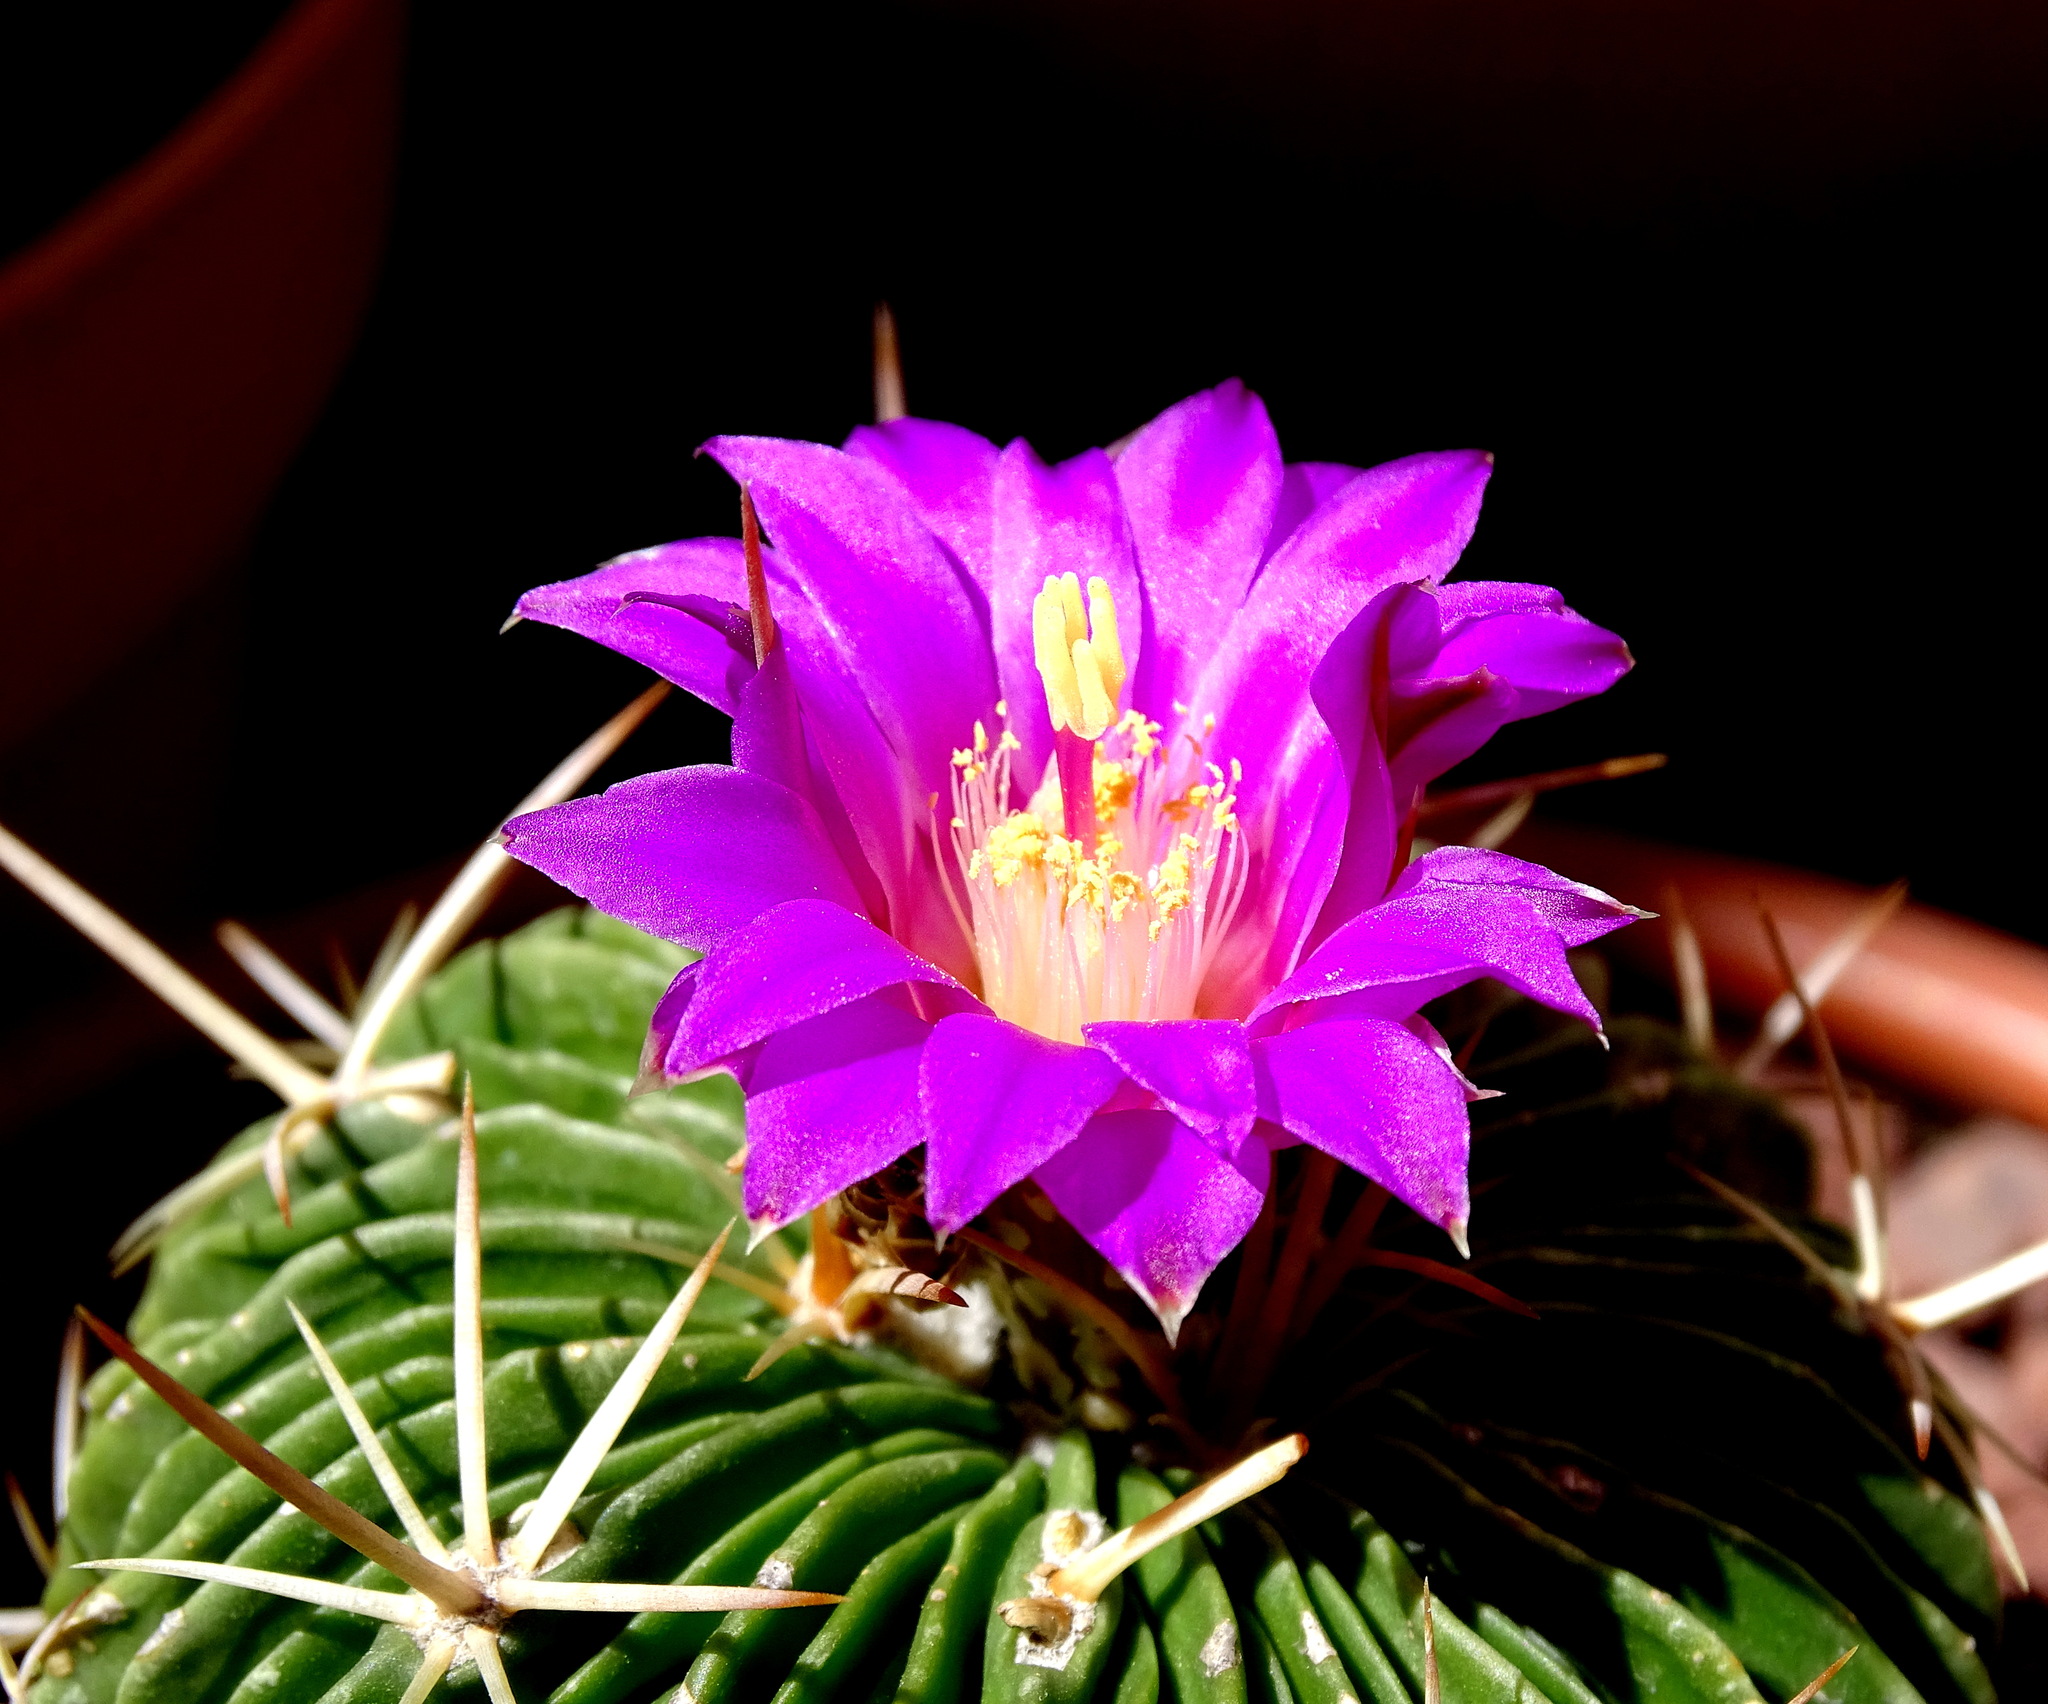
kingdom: Plantae
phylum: Tracheophyta
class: Magnoliopsida
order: Caryophyllales
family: Cactaceae
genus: Stenocactus
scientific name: Stenocactus crispatus
